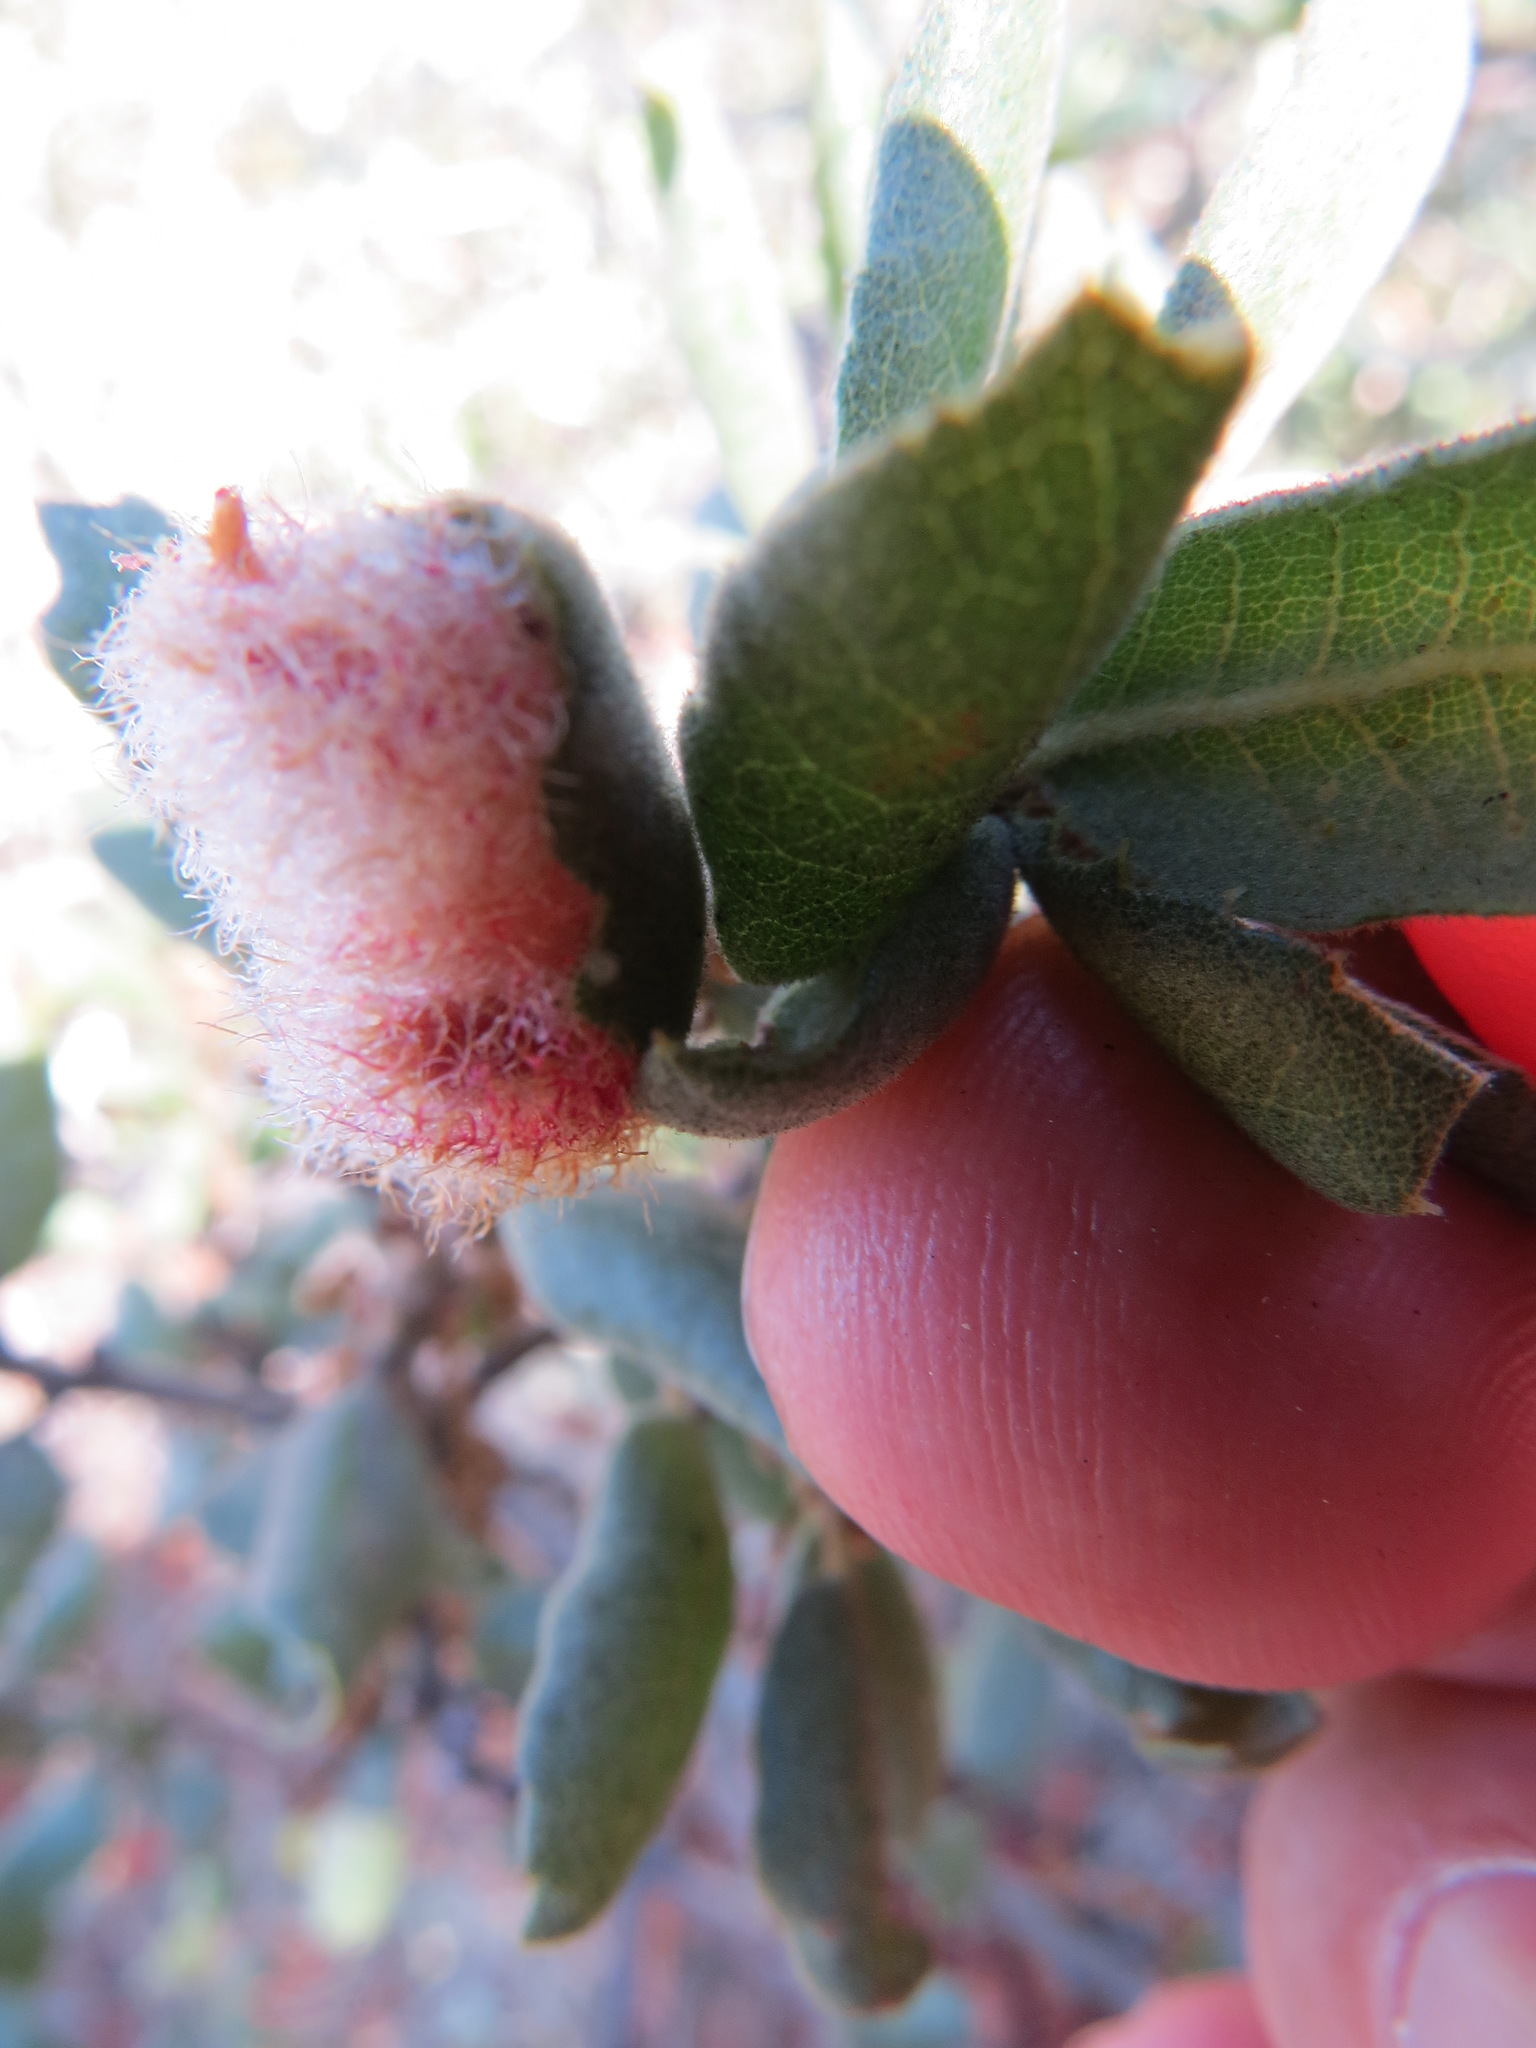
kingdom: Animalia
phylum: Arthropoda
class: Insecta
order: Hymenoptera
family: Cynipidae
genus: Andricus
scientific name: Andricus
